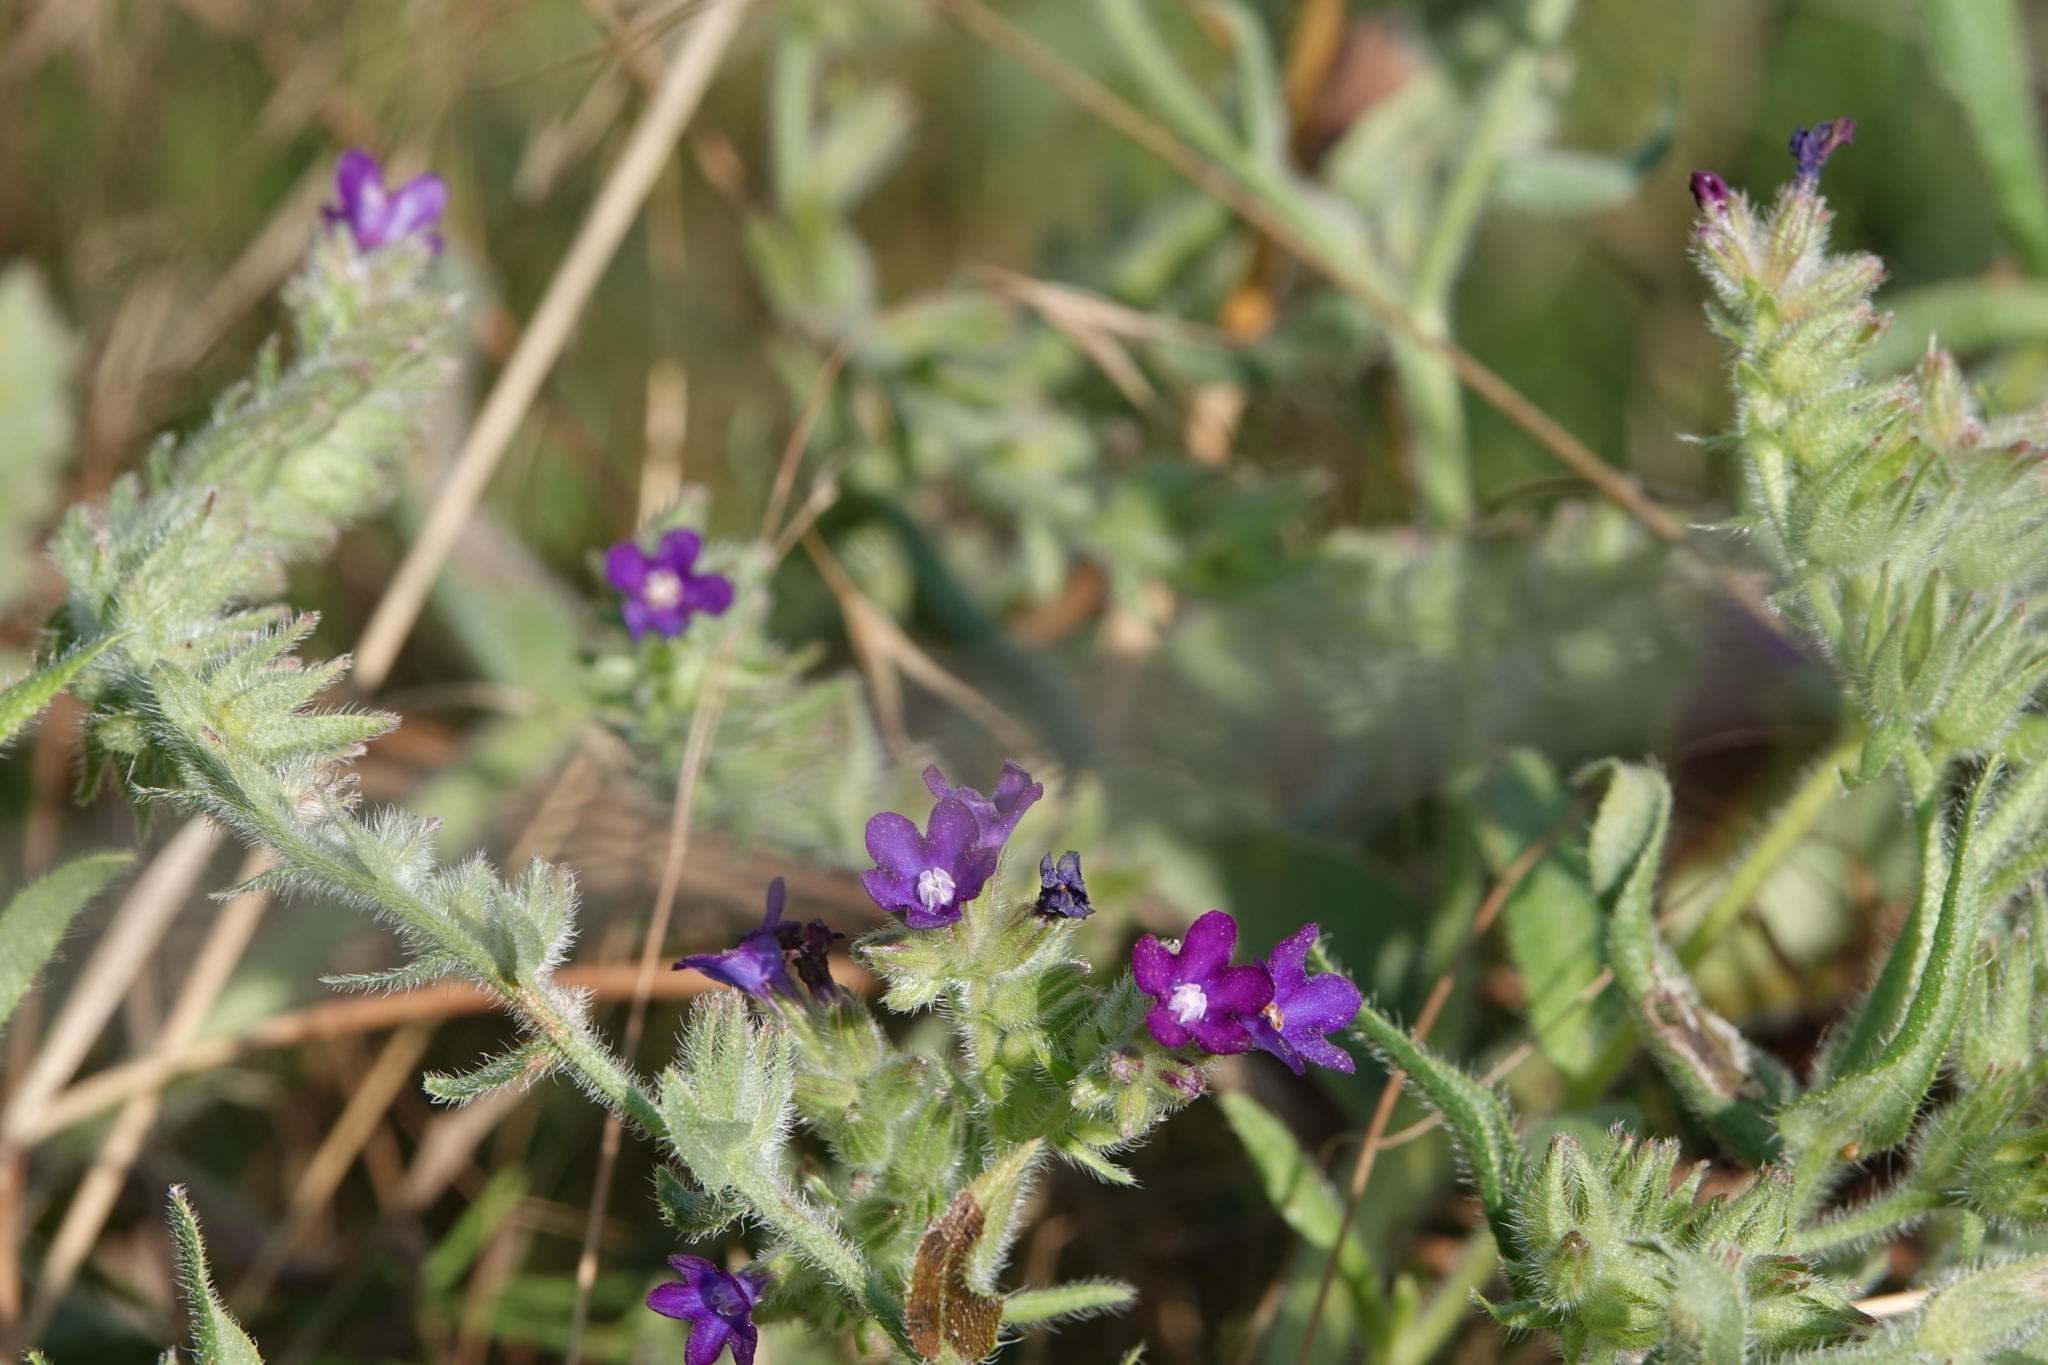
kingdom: Plantae
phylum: Tracheophyta
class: Magnoliopsida
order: Boraginales
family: Boraginaceae
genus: Anchusa
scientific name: Anchusa officinalis
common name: Alkanet
